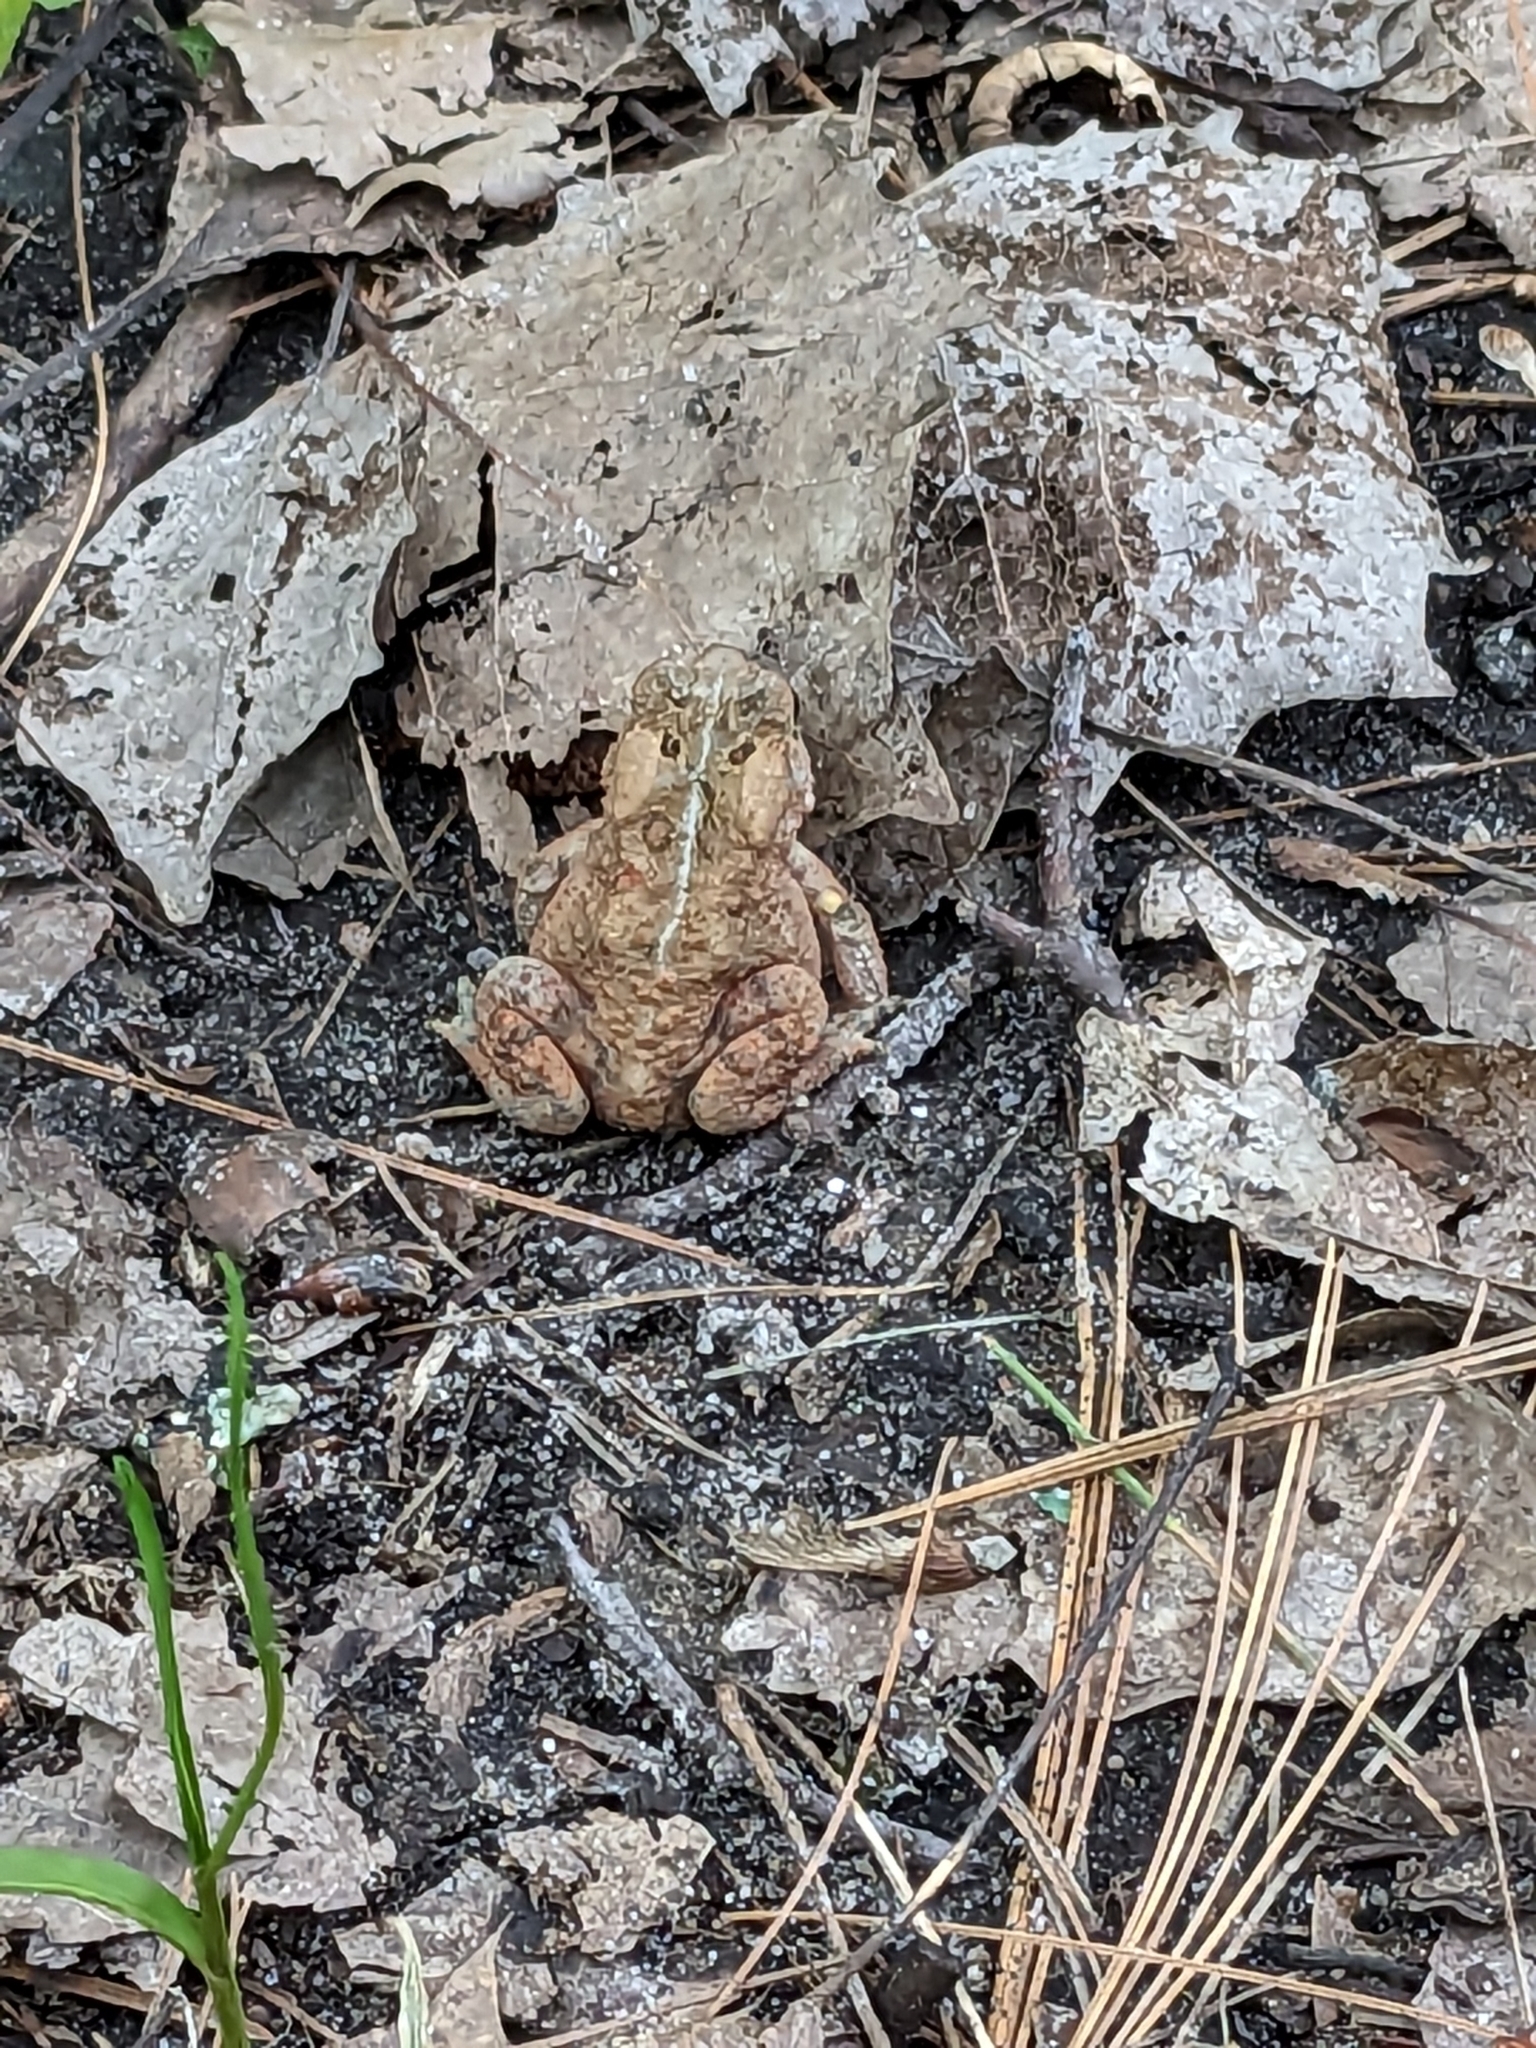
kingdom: Animalia
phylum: Chordata
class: Amphibia
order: Anura
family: Bufonidae
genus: Anaxyrus
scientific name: Anaxyrus americanus
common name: American toad
